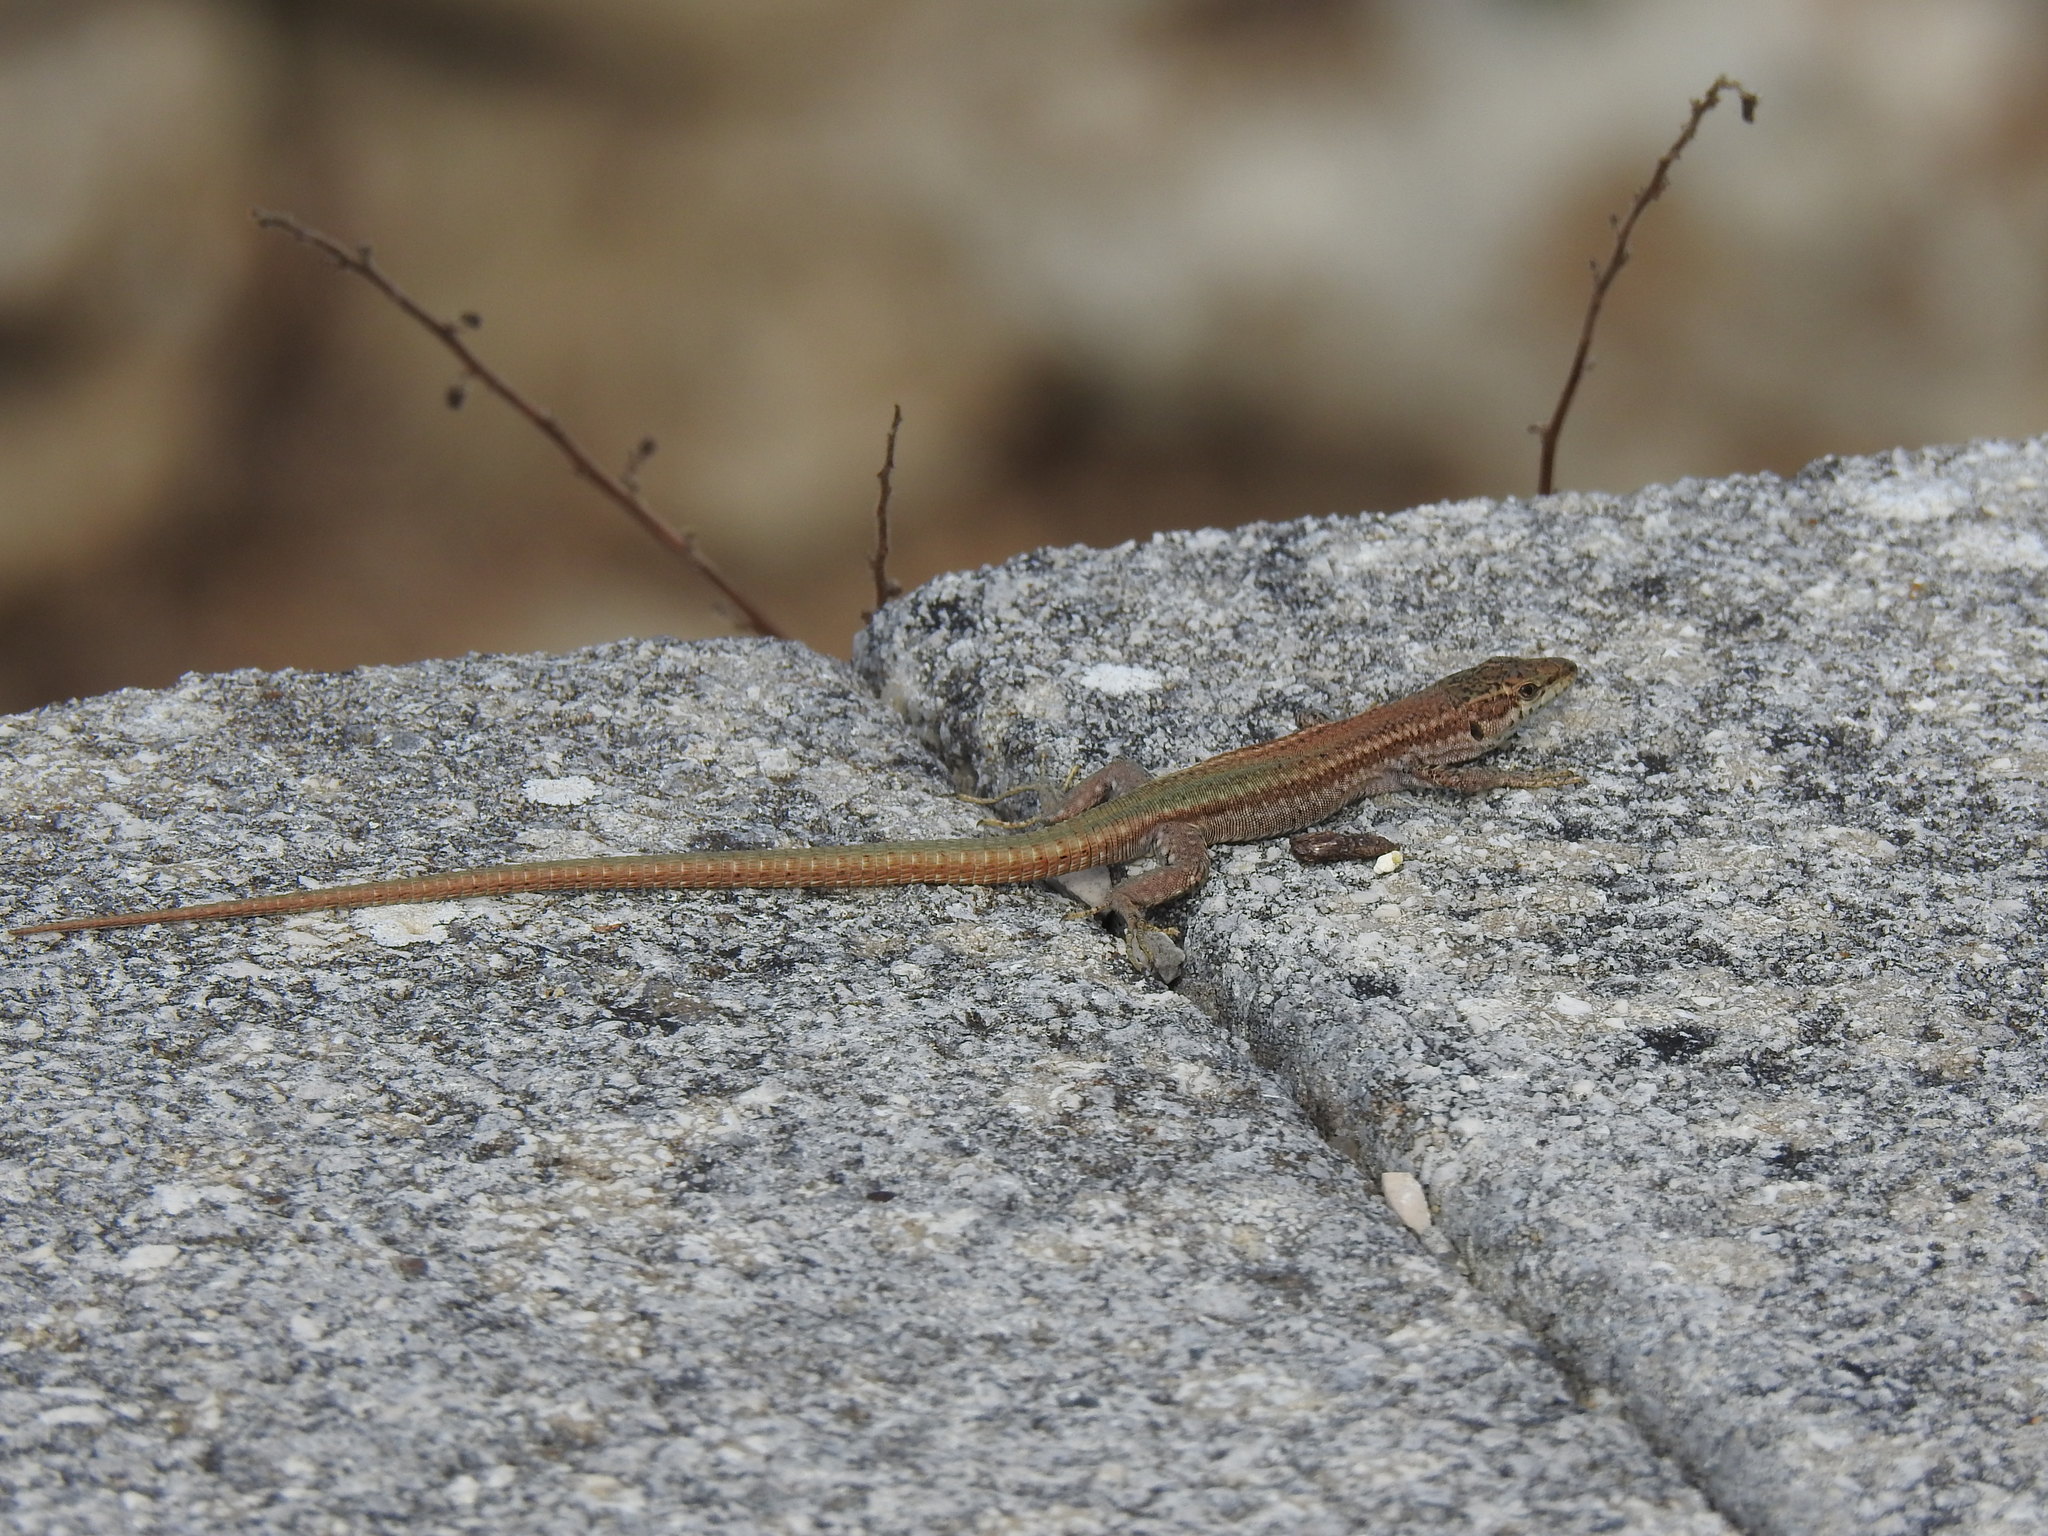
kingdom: Animalia
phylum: Chordata
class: Squamata
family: Lacertidae
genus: Podarcis
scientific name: Podarcis virescens
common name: Geniez’s wall lizard
